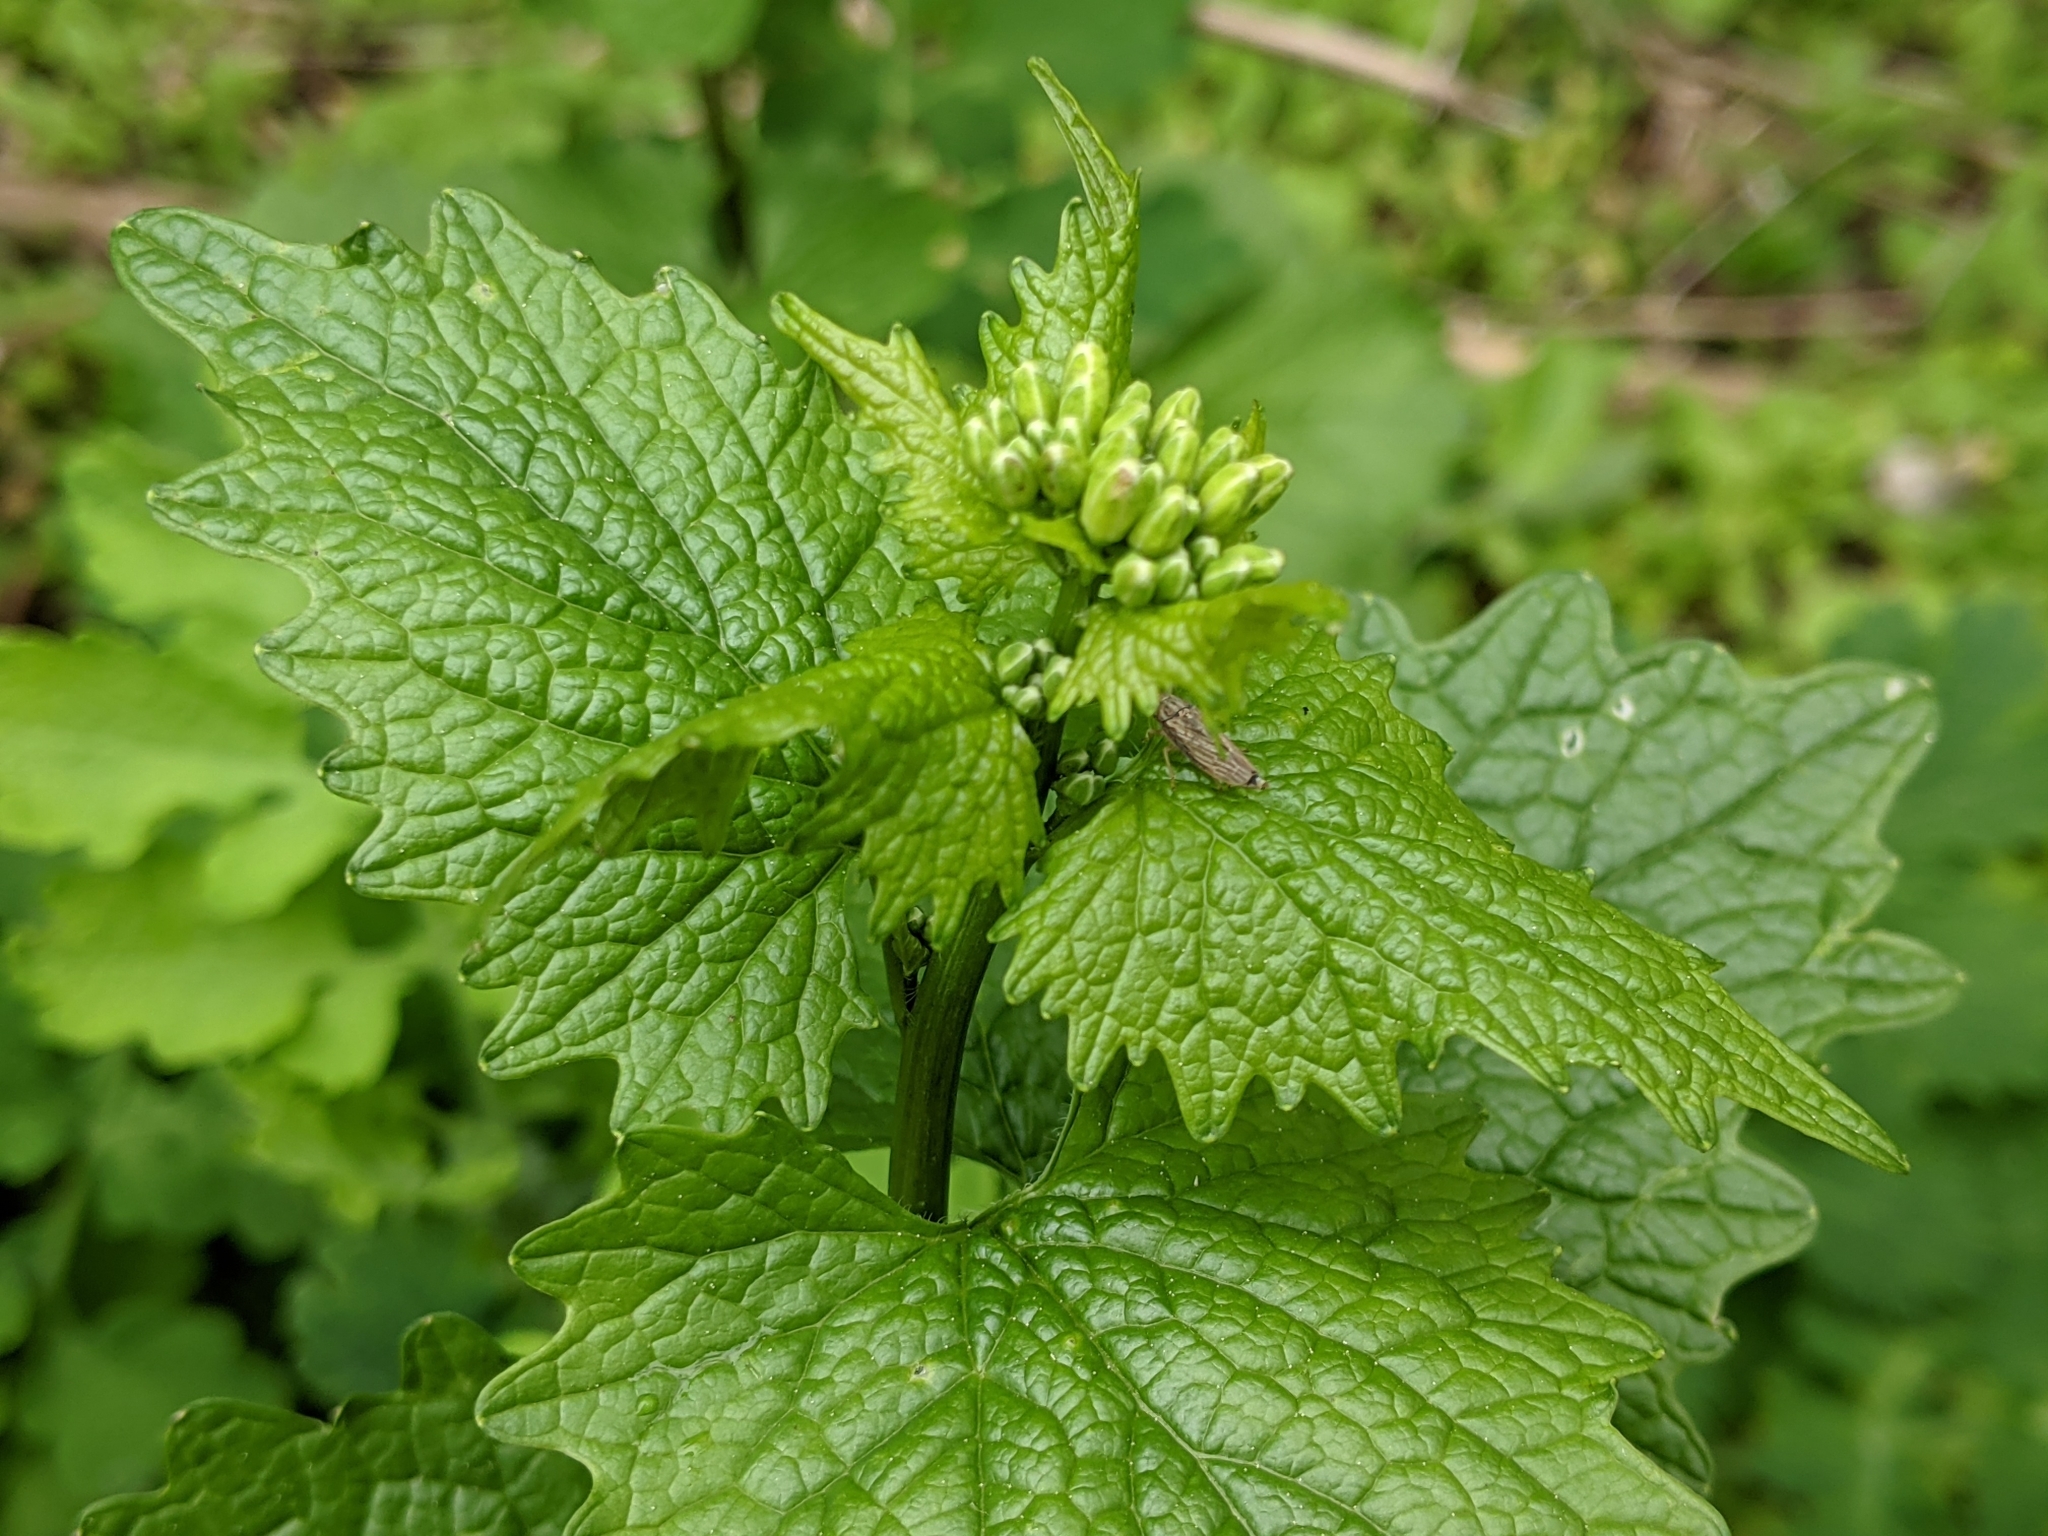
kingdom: Plantae
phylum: Tracheophyta
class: Magnoliopsida
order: Brassicales
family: Brassicaceae
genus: Alliaria
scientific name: Alliaria petiolata
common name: Garlic mustard
